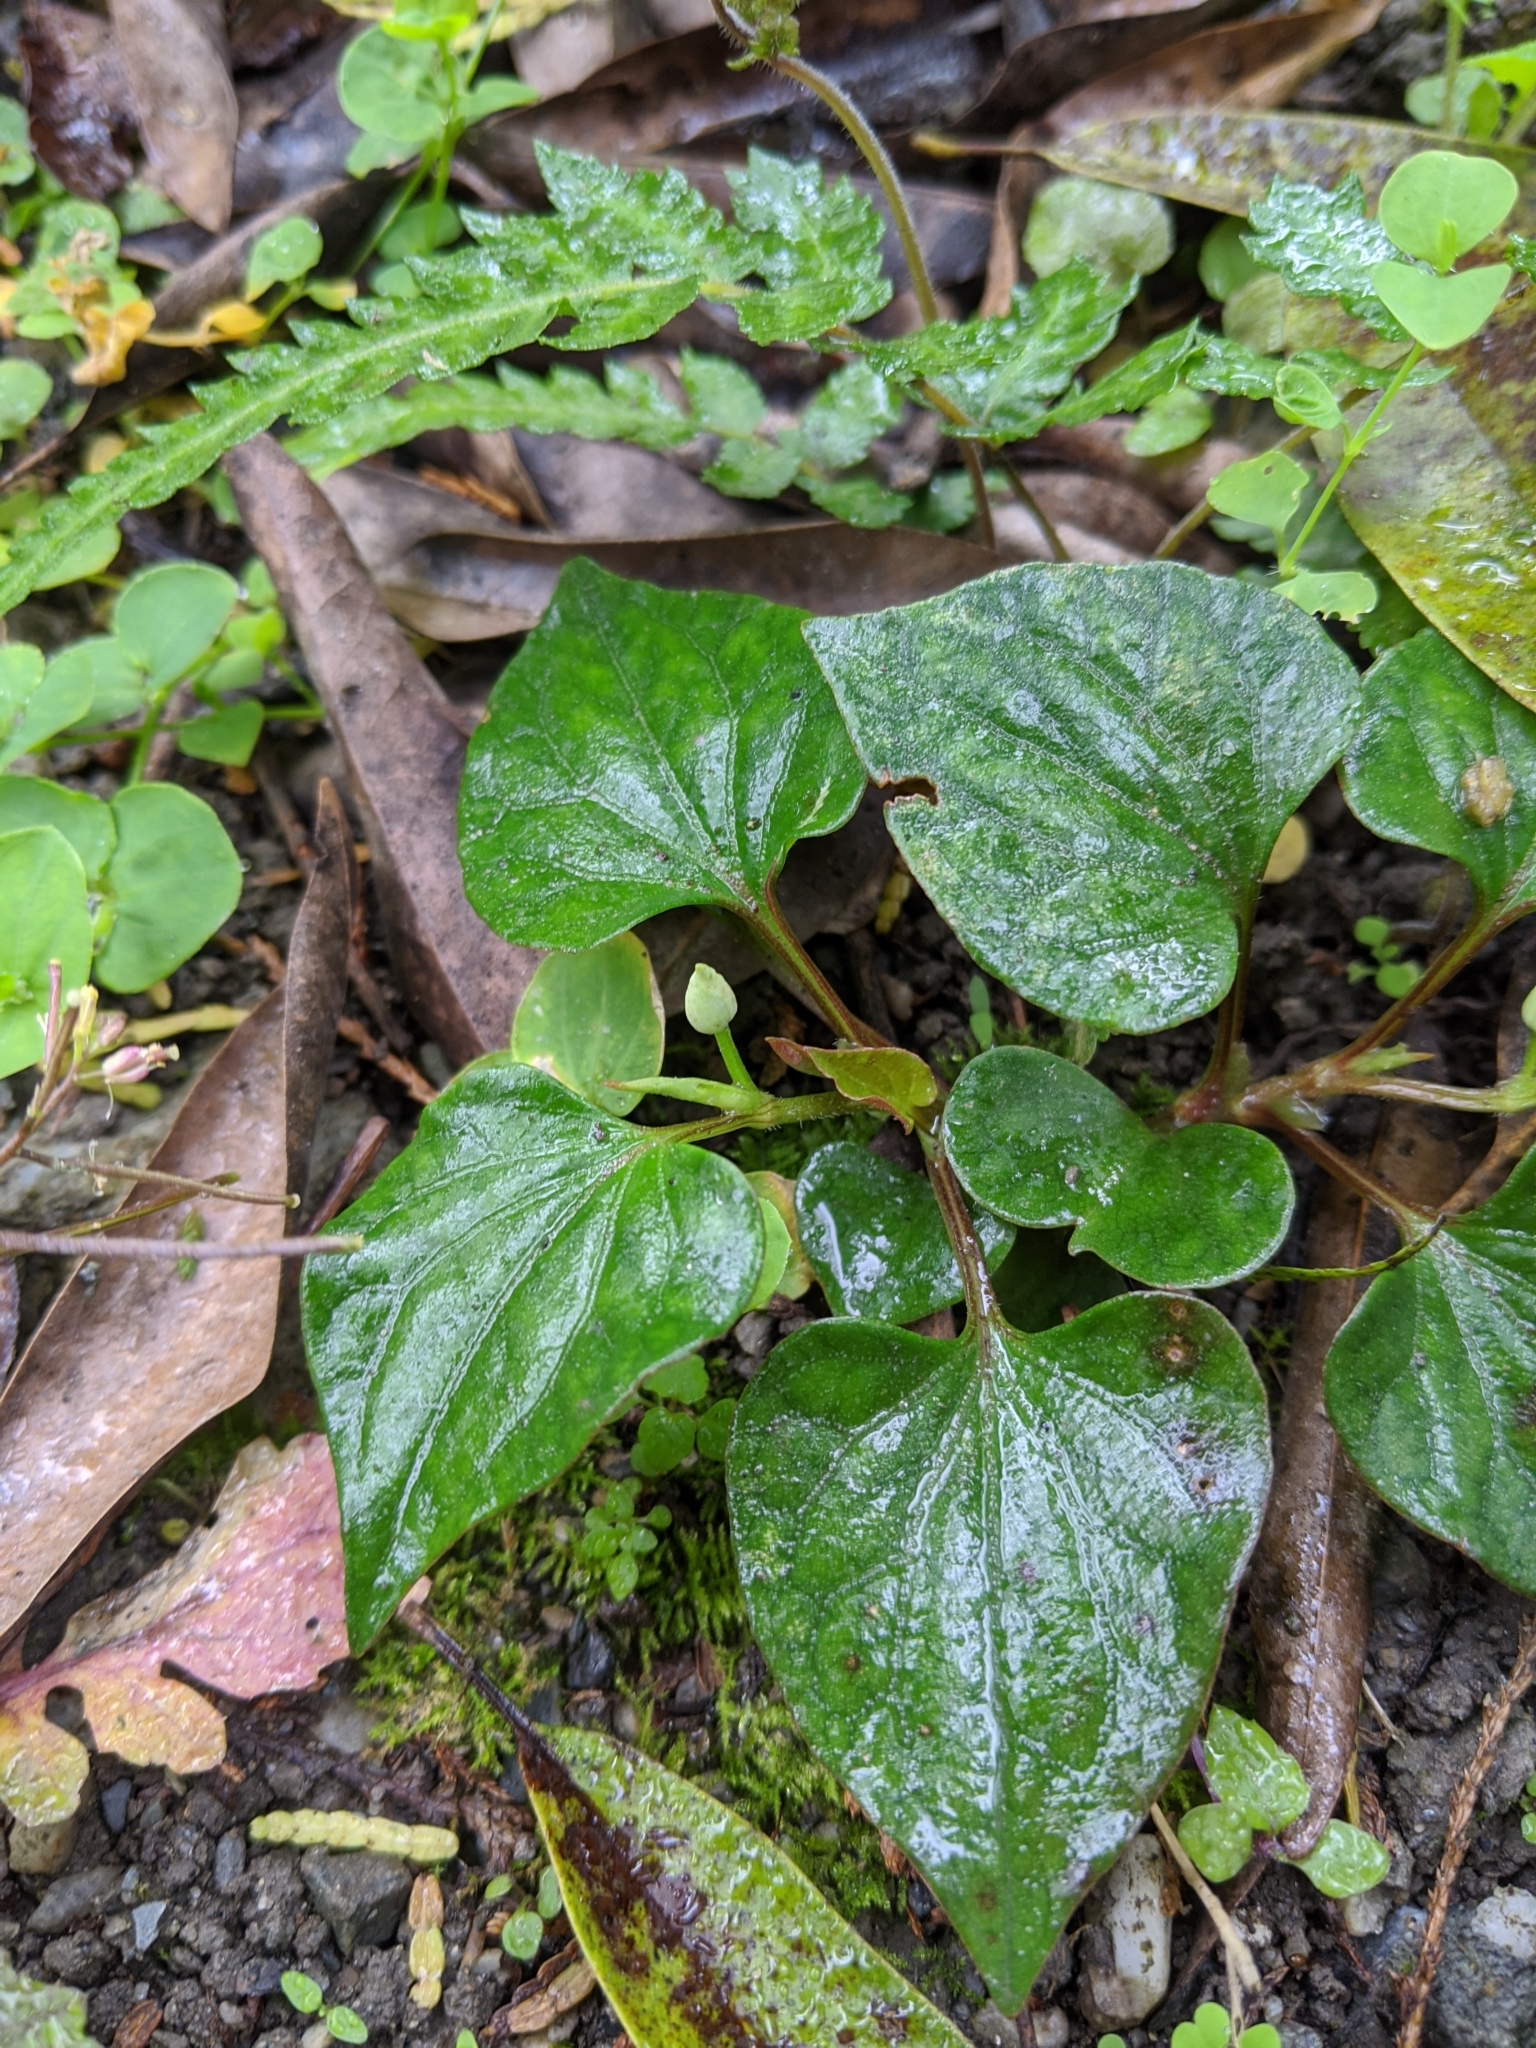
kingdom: Plantae
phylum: Tracheophyta
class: Magnoliopsida
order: Piperales
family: Saururaceae
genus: Houttuynia
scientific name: Houttuynia cordata
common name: Chameleon
